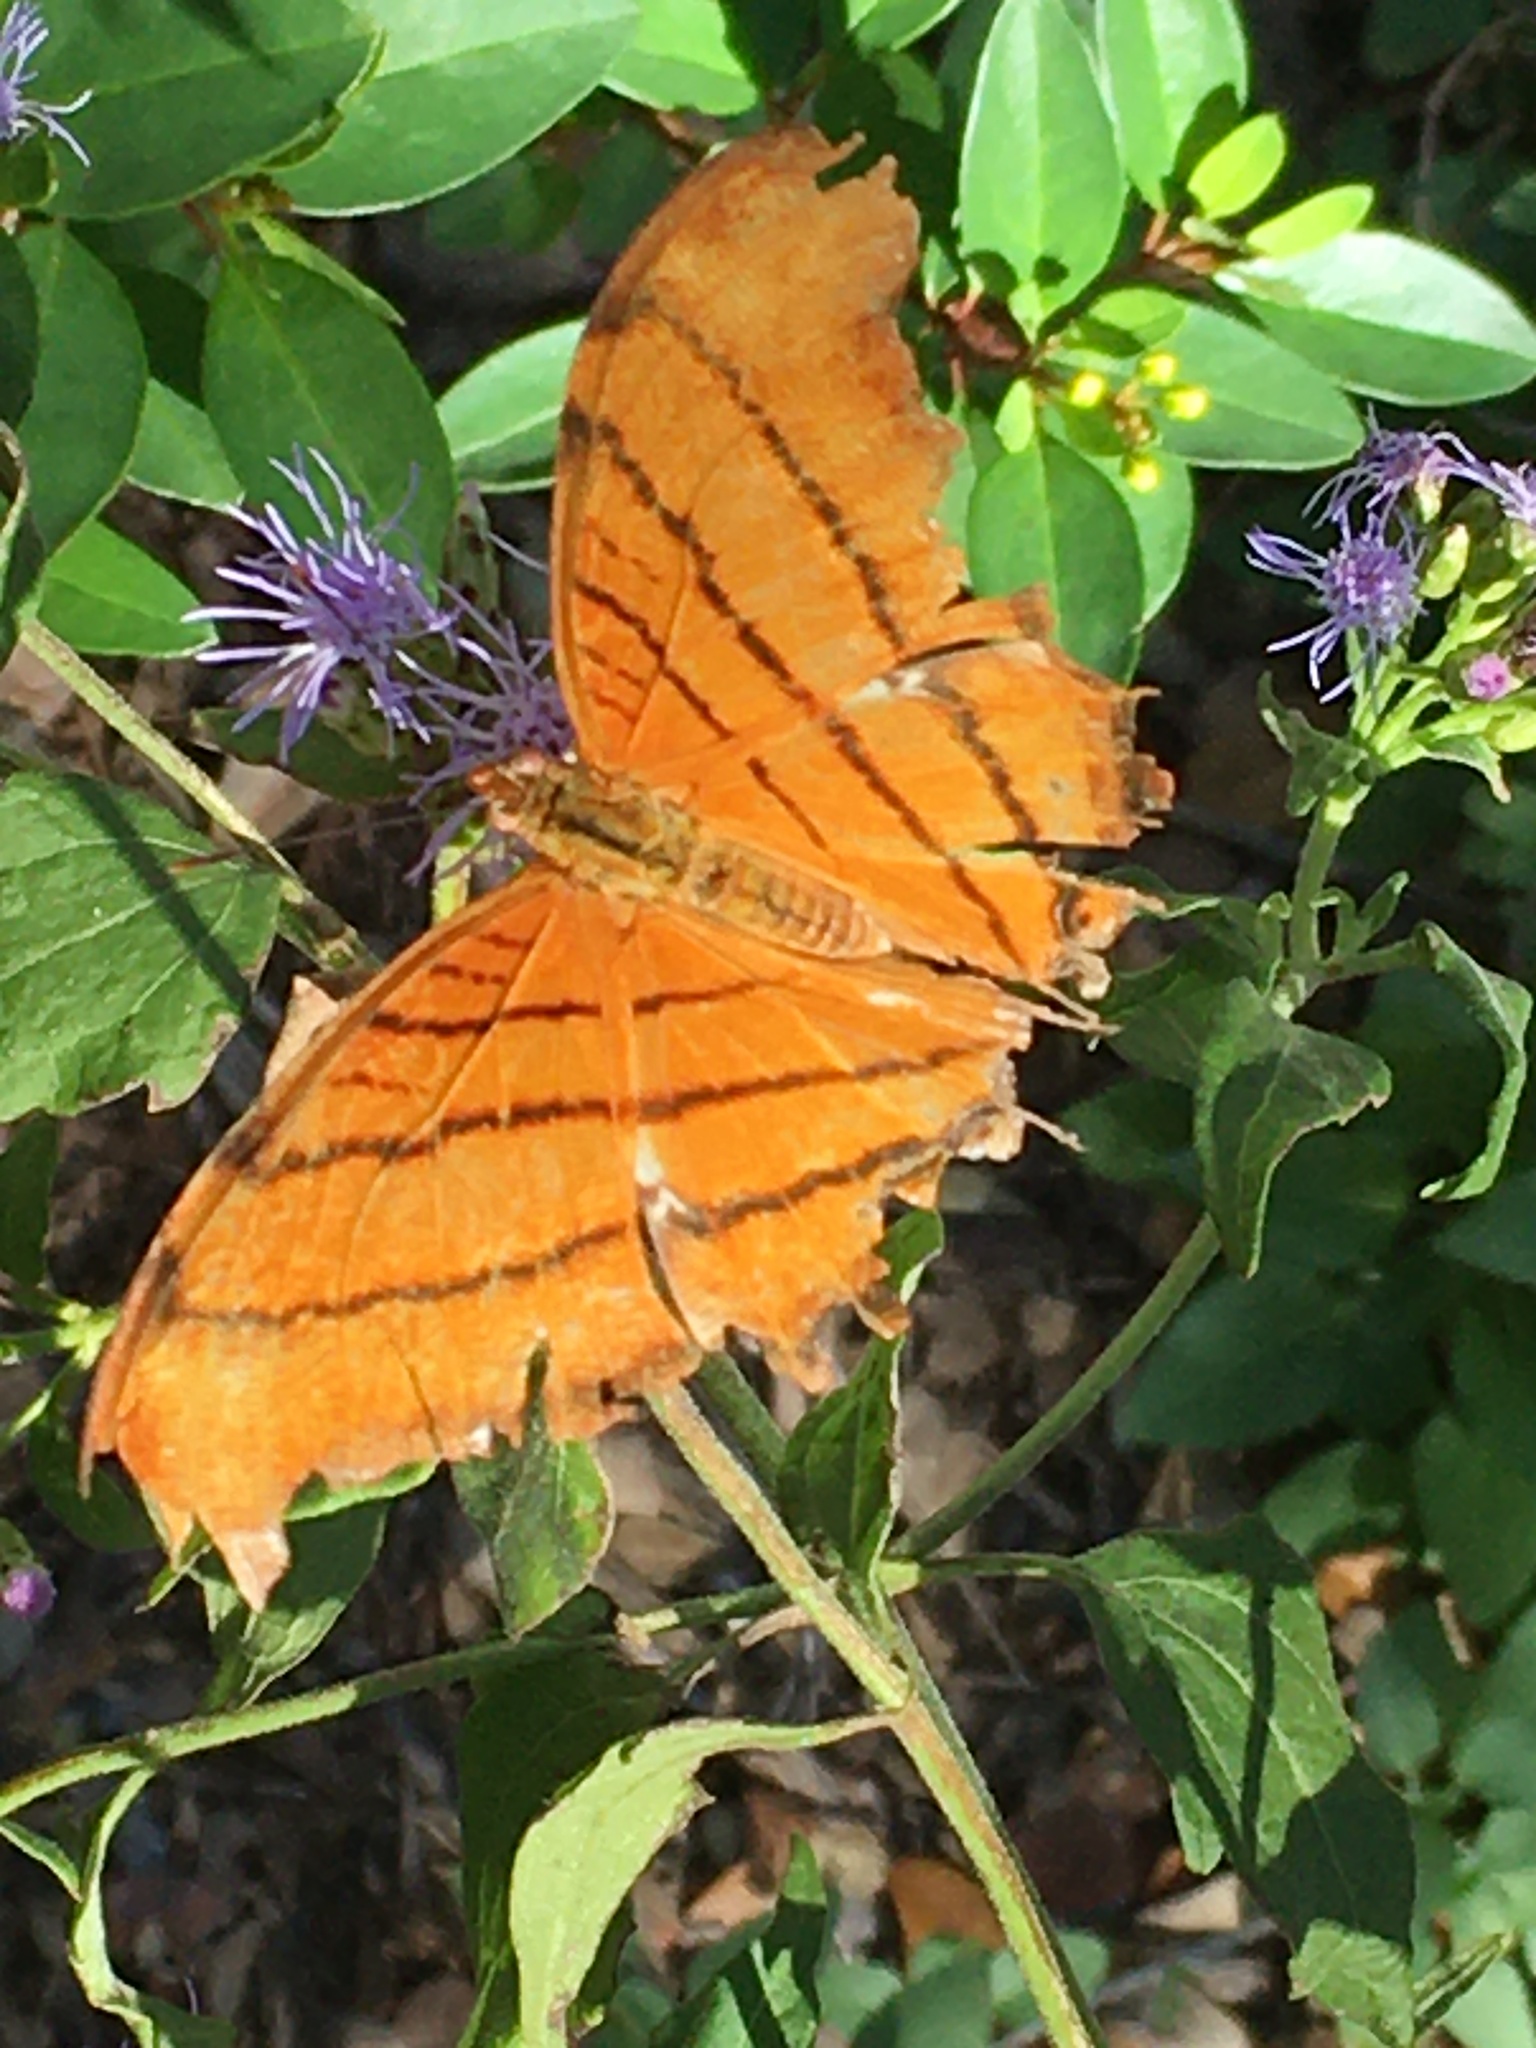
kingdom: Animalia
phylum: Arthropoda
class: Insecta
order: Lepidoptera
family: Nymphalidae
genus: Marpesia
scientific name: Marpesia petreus
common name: Red dagger wing
